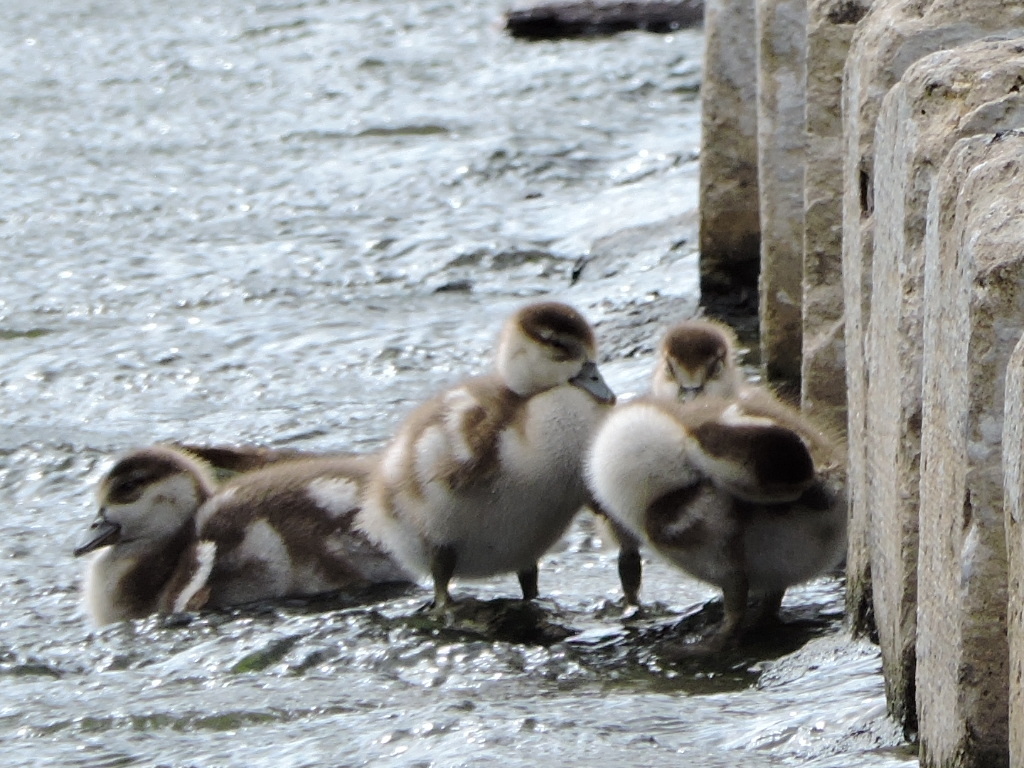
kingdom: Animalia
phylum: Chordata
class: Aves
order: Anseriformes
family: Anatidae
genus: Alopochen
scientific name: Alopochen aegyptiaca
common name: Egyptian goose
